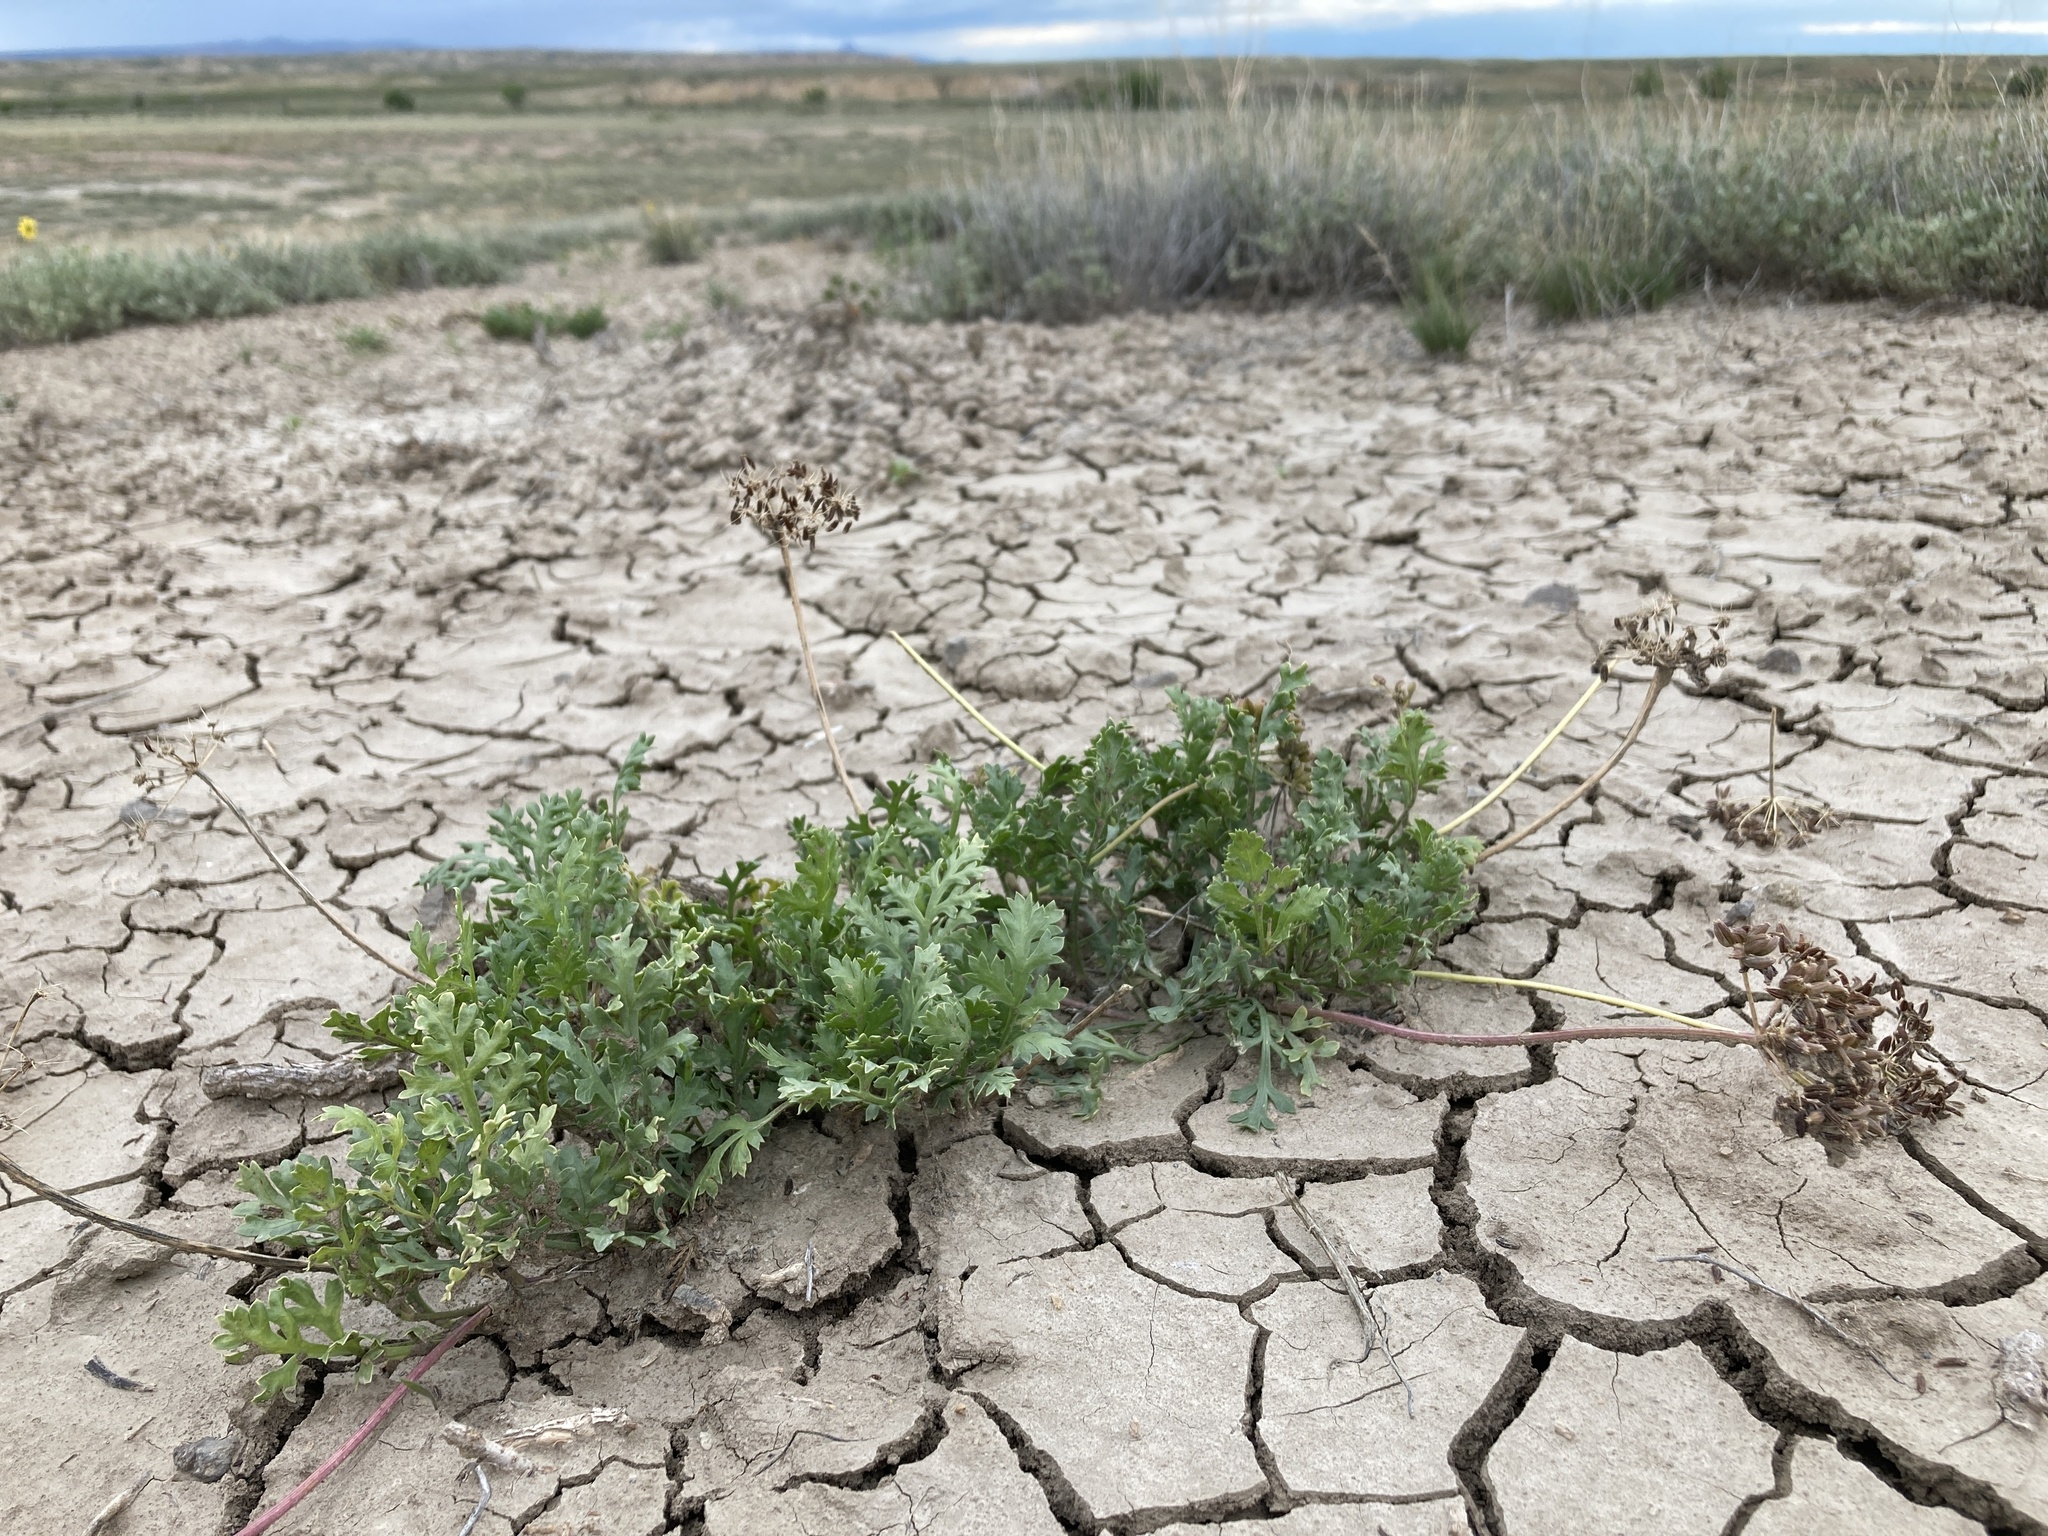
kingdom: Plantae
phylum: Tracheophyta
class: Magnoliopsida
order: Apiales
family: Apiaceae
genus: Musineon
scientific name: Musineon divaricatum
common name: Plains musineon
